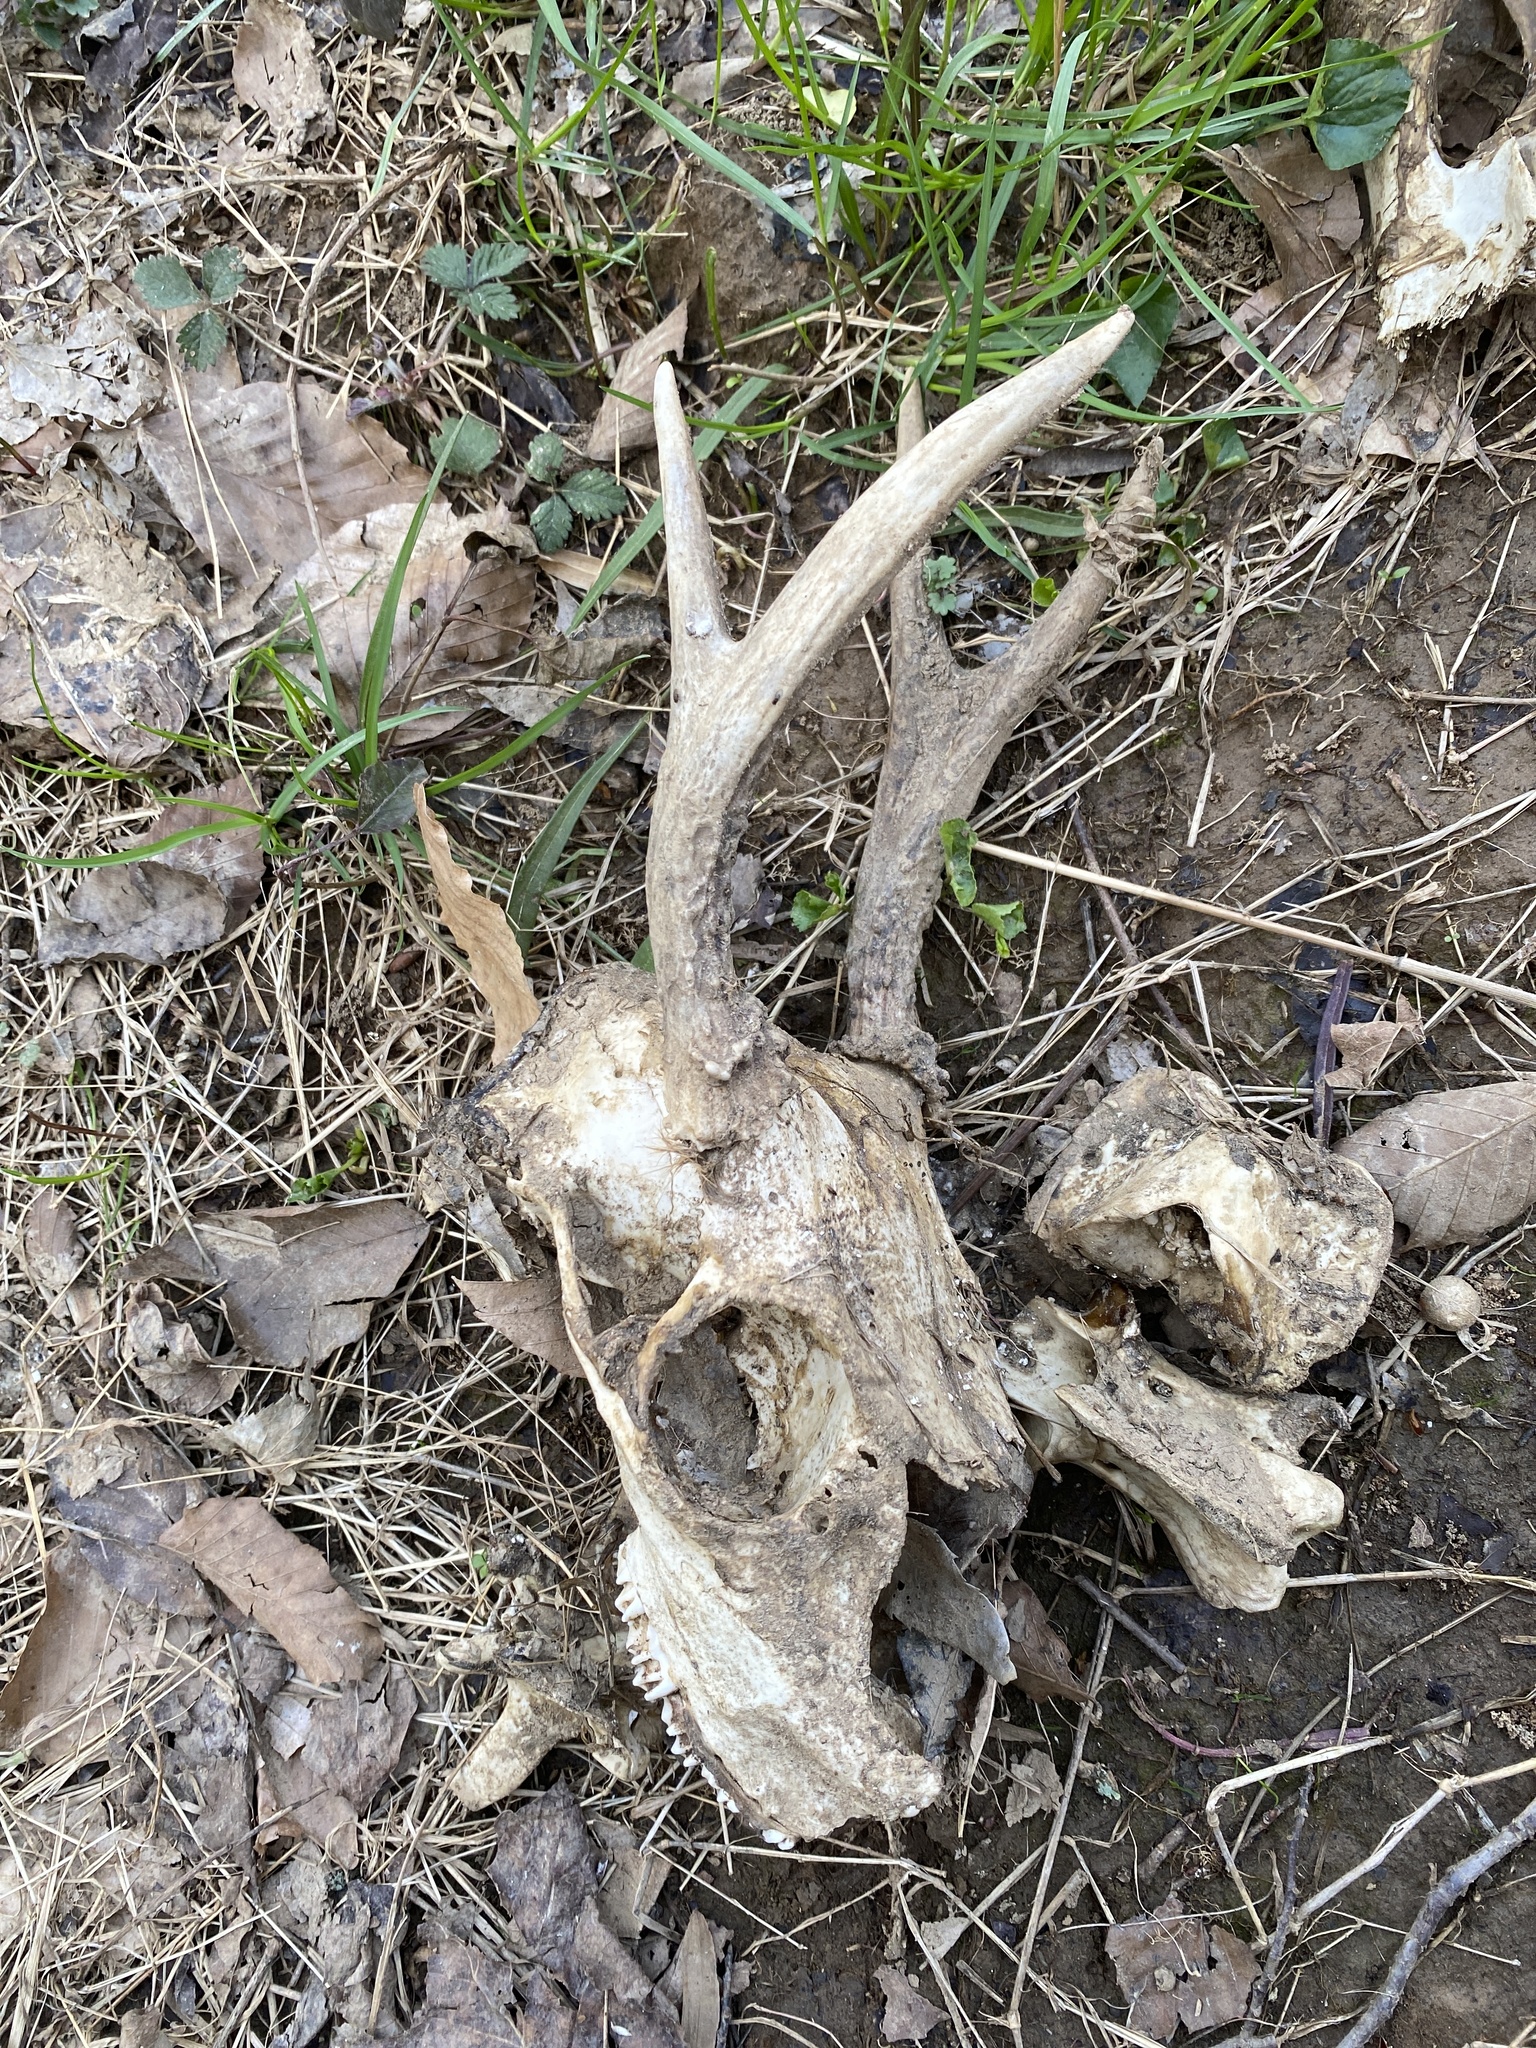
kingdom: Animalia
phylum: Chordata
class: Mammalia
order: Artiodactyla
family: Cervidae
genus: Odocoileus
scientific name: Odocoileus virginianus
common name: White-tailed deer
